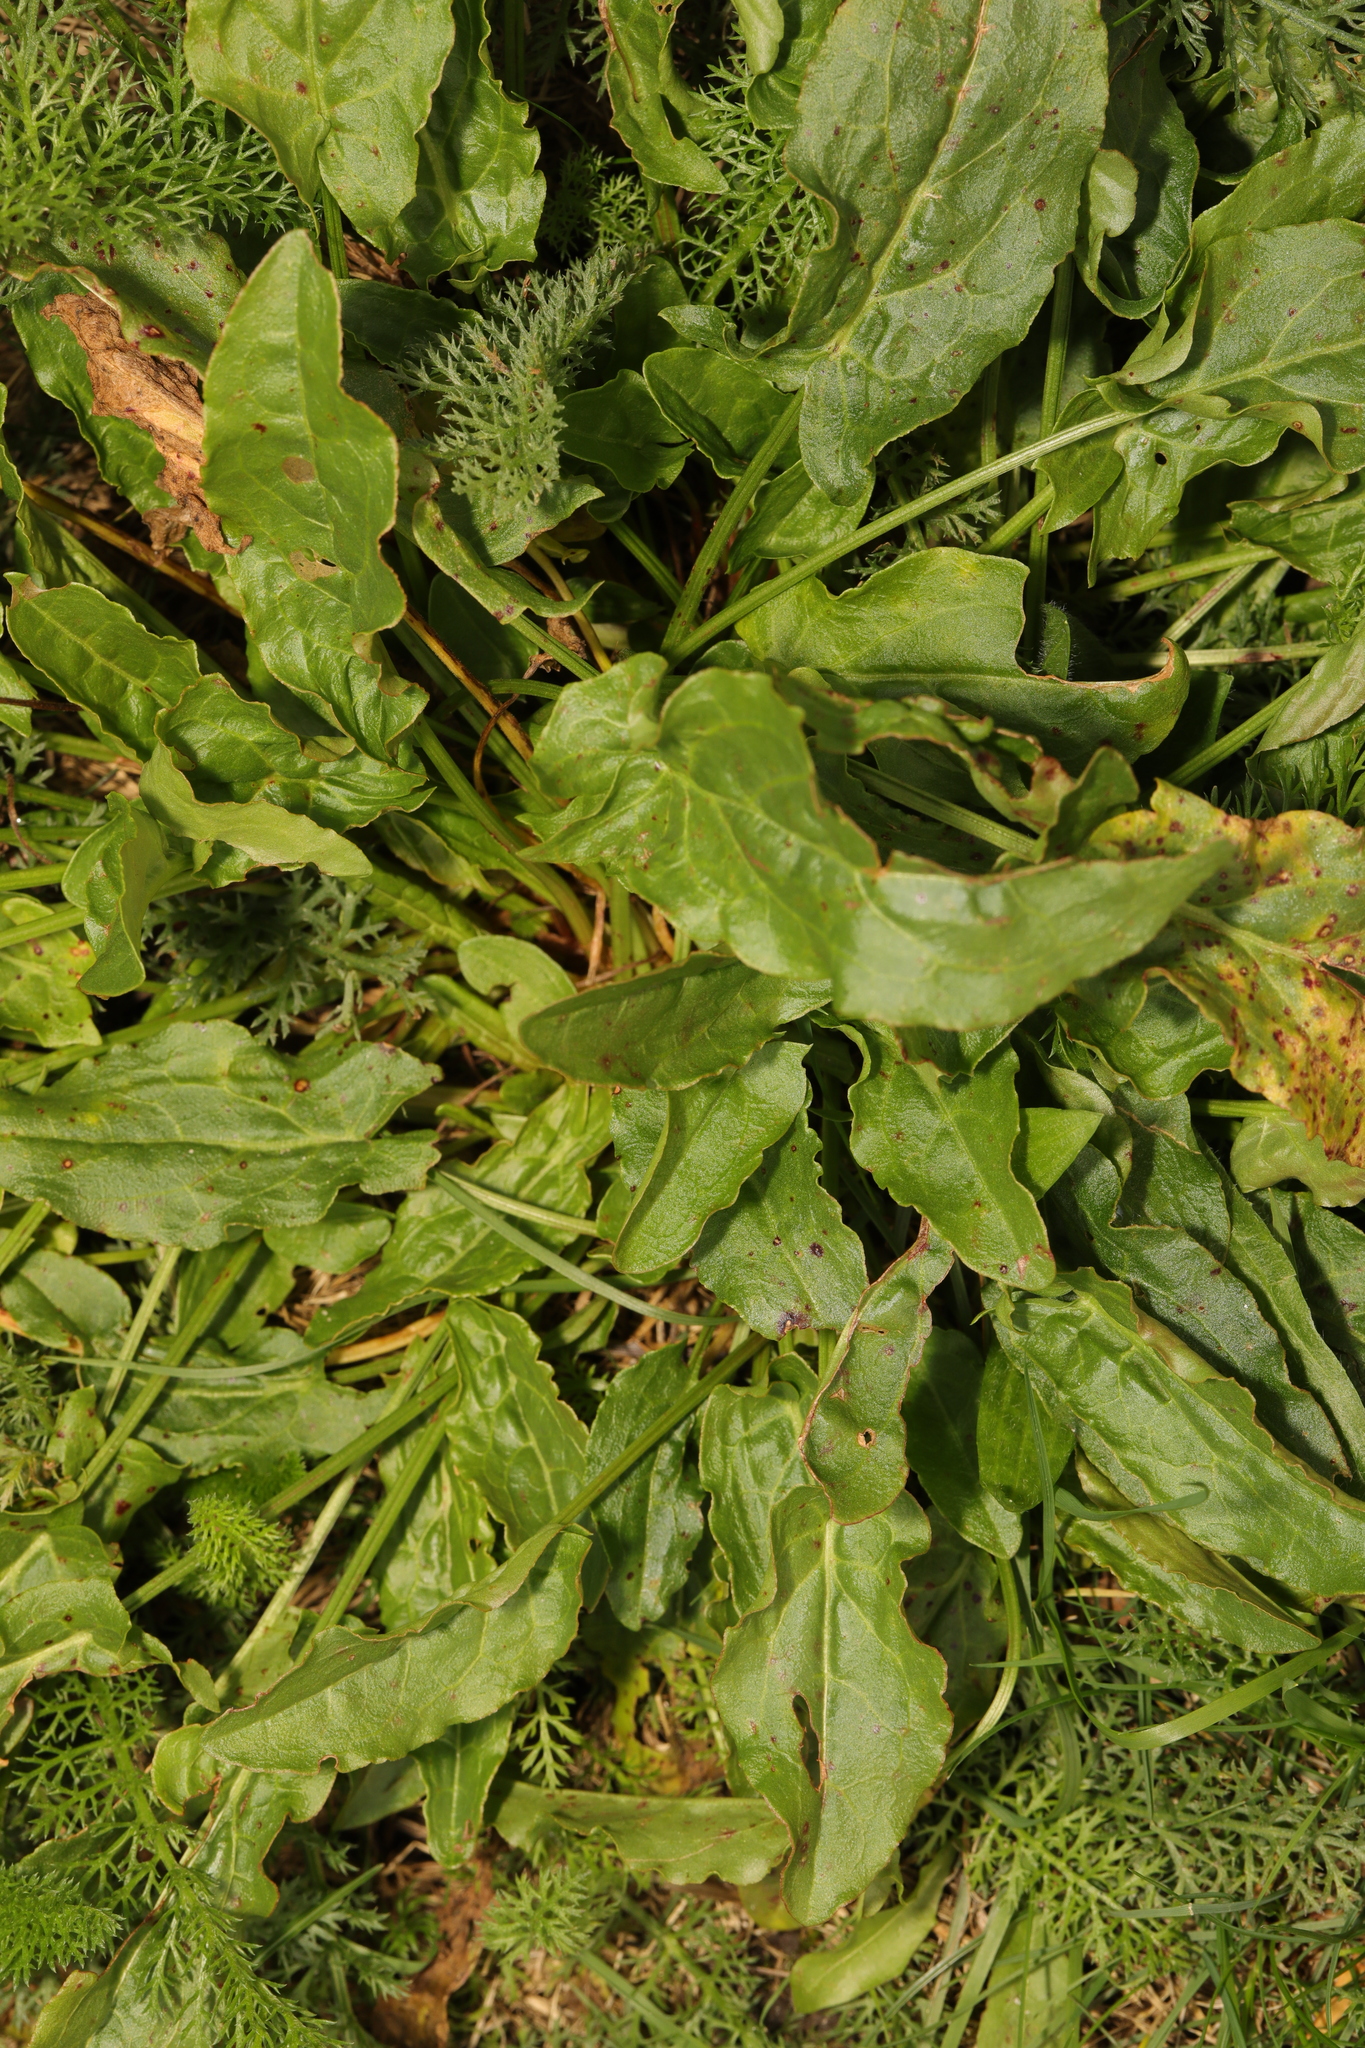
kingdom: Plantae
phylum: Tracheophyta
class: Magnoliopsida
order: Caryophyllales
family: Polygonaceae
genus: Rumex
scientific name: Rumex acetosa
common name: Garden sorrel
